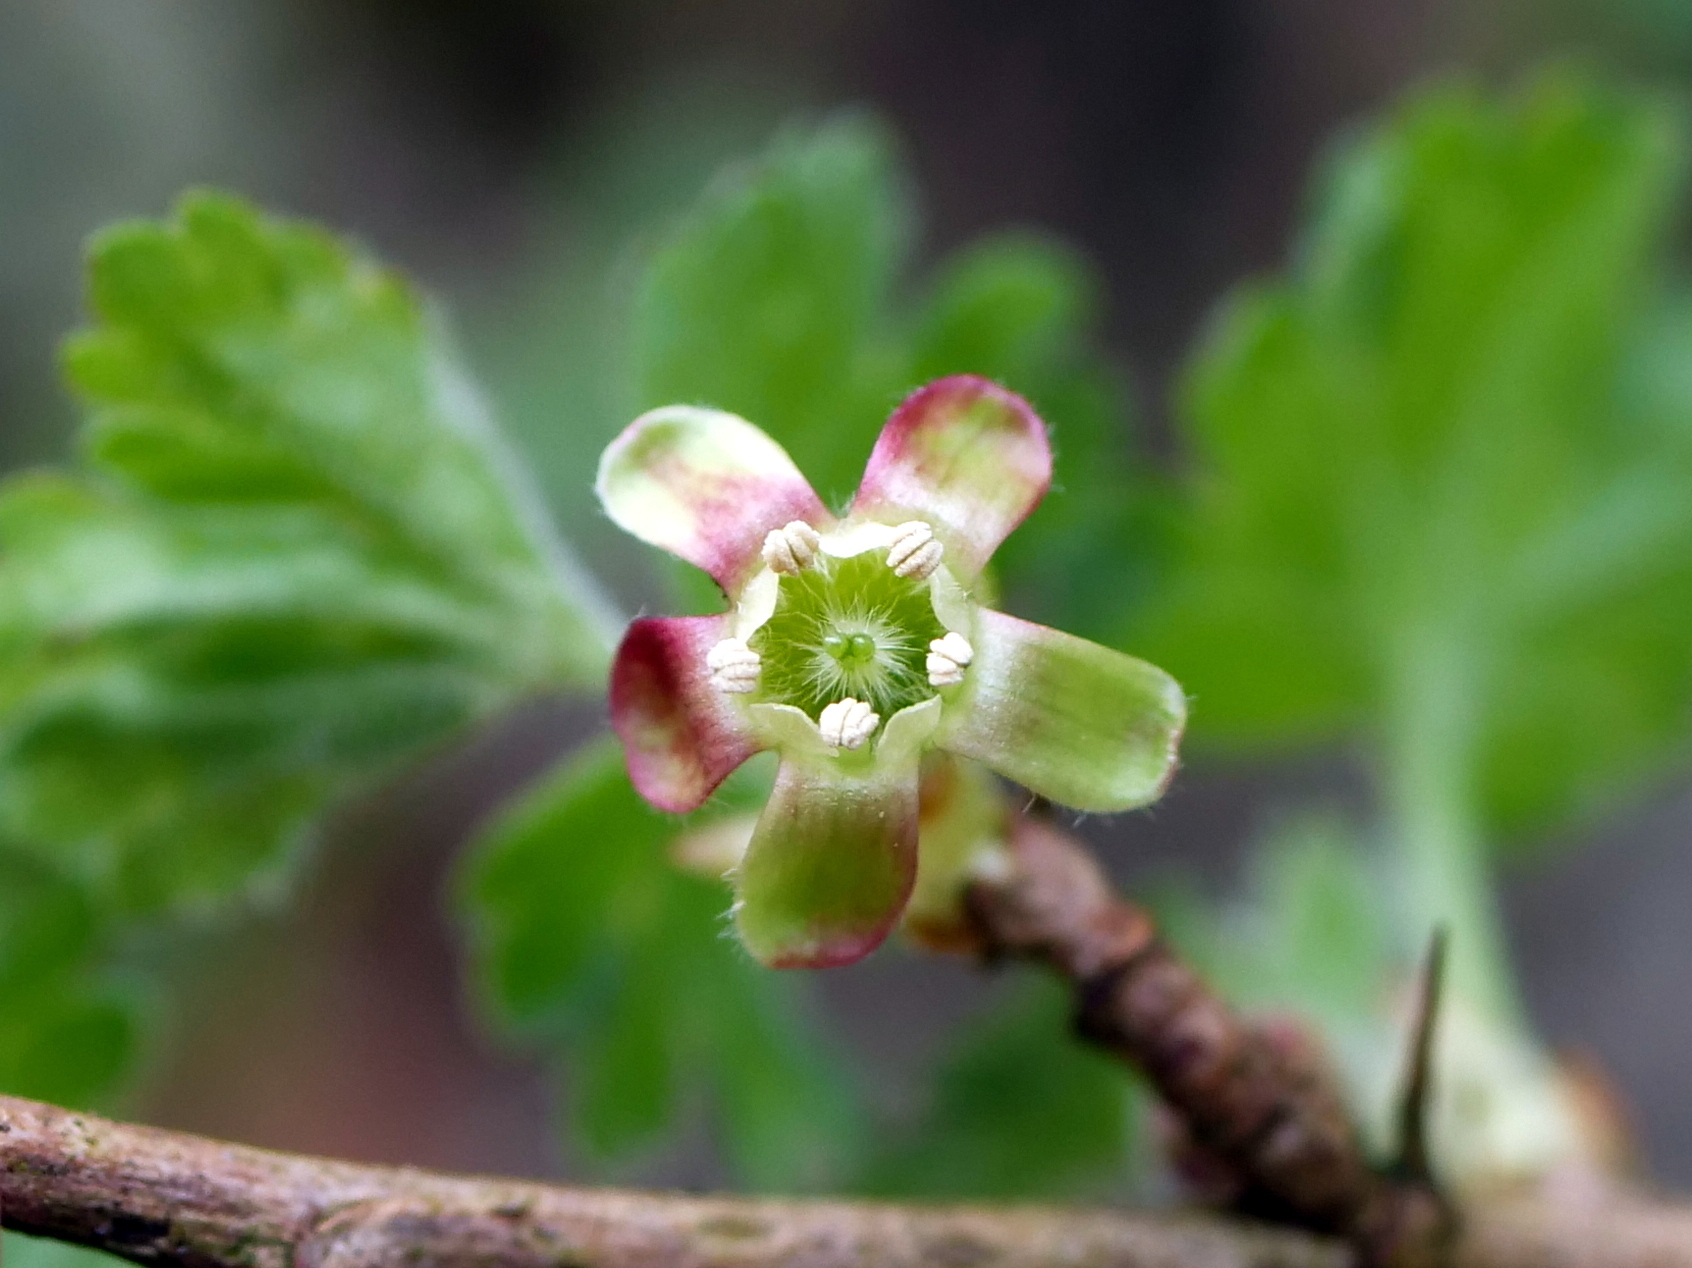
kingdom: Plantae
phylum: Tracheophyta
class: Magnoliopsida
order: Saxifragales
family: Grossulariaceae
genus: Ribes
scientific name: Ribes uva-crispa
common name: Gooseberry
